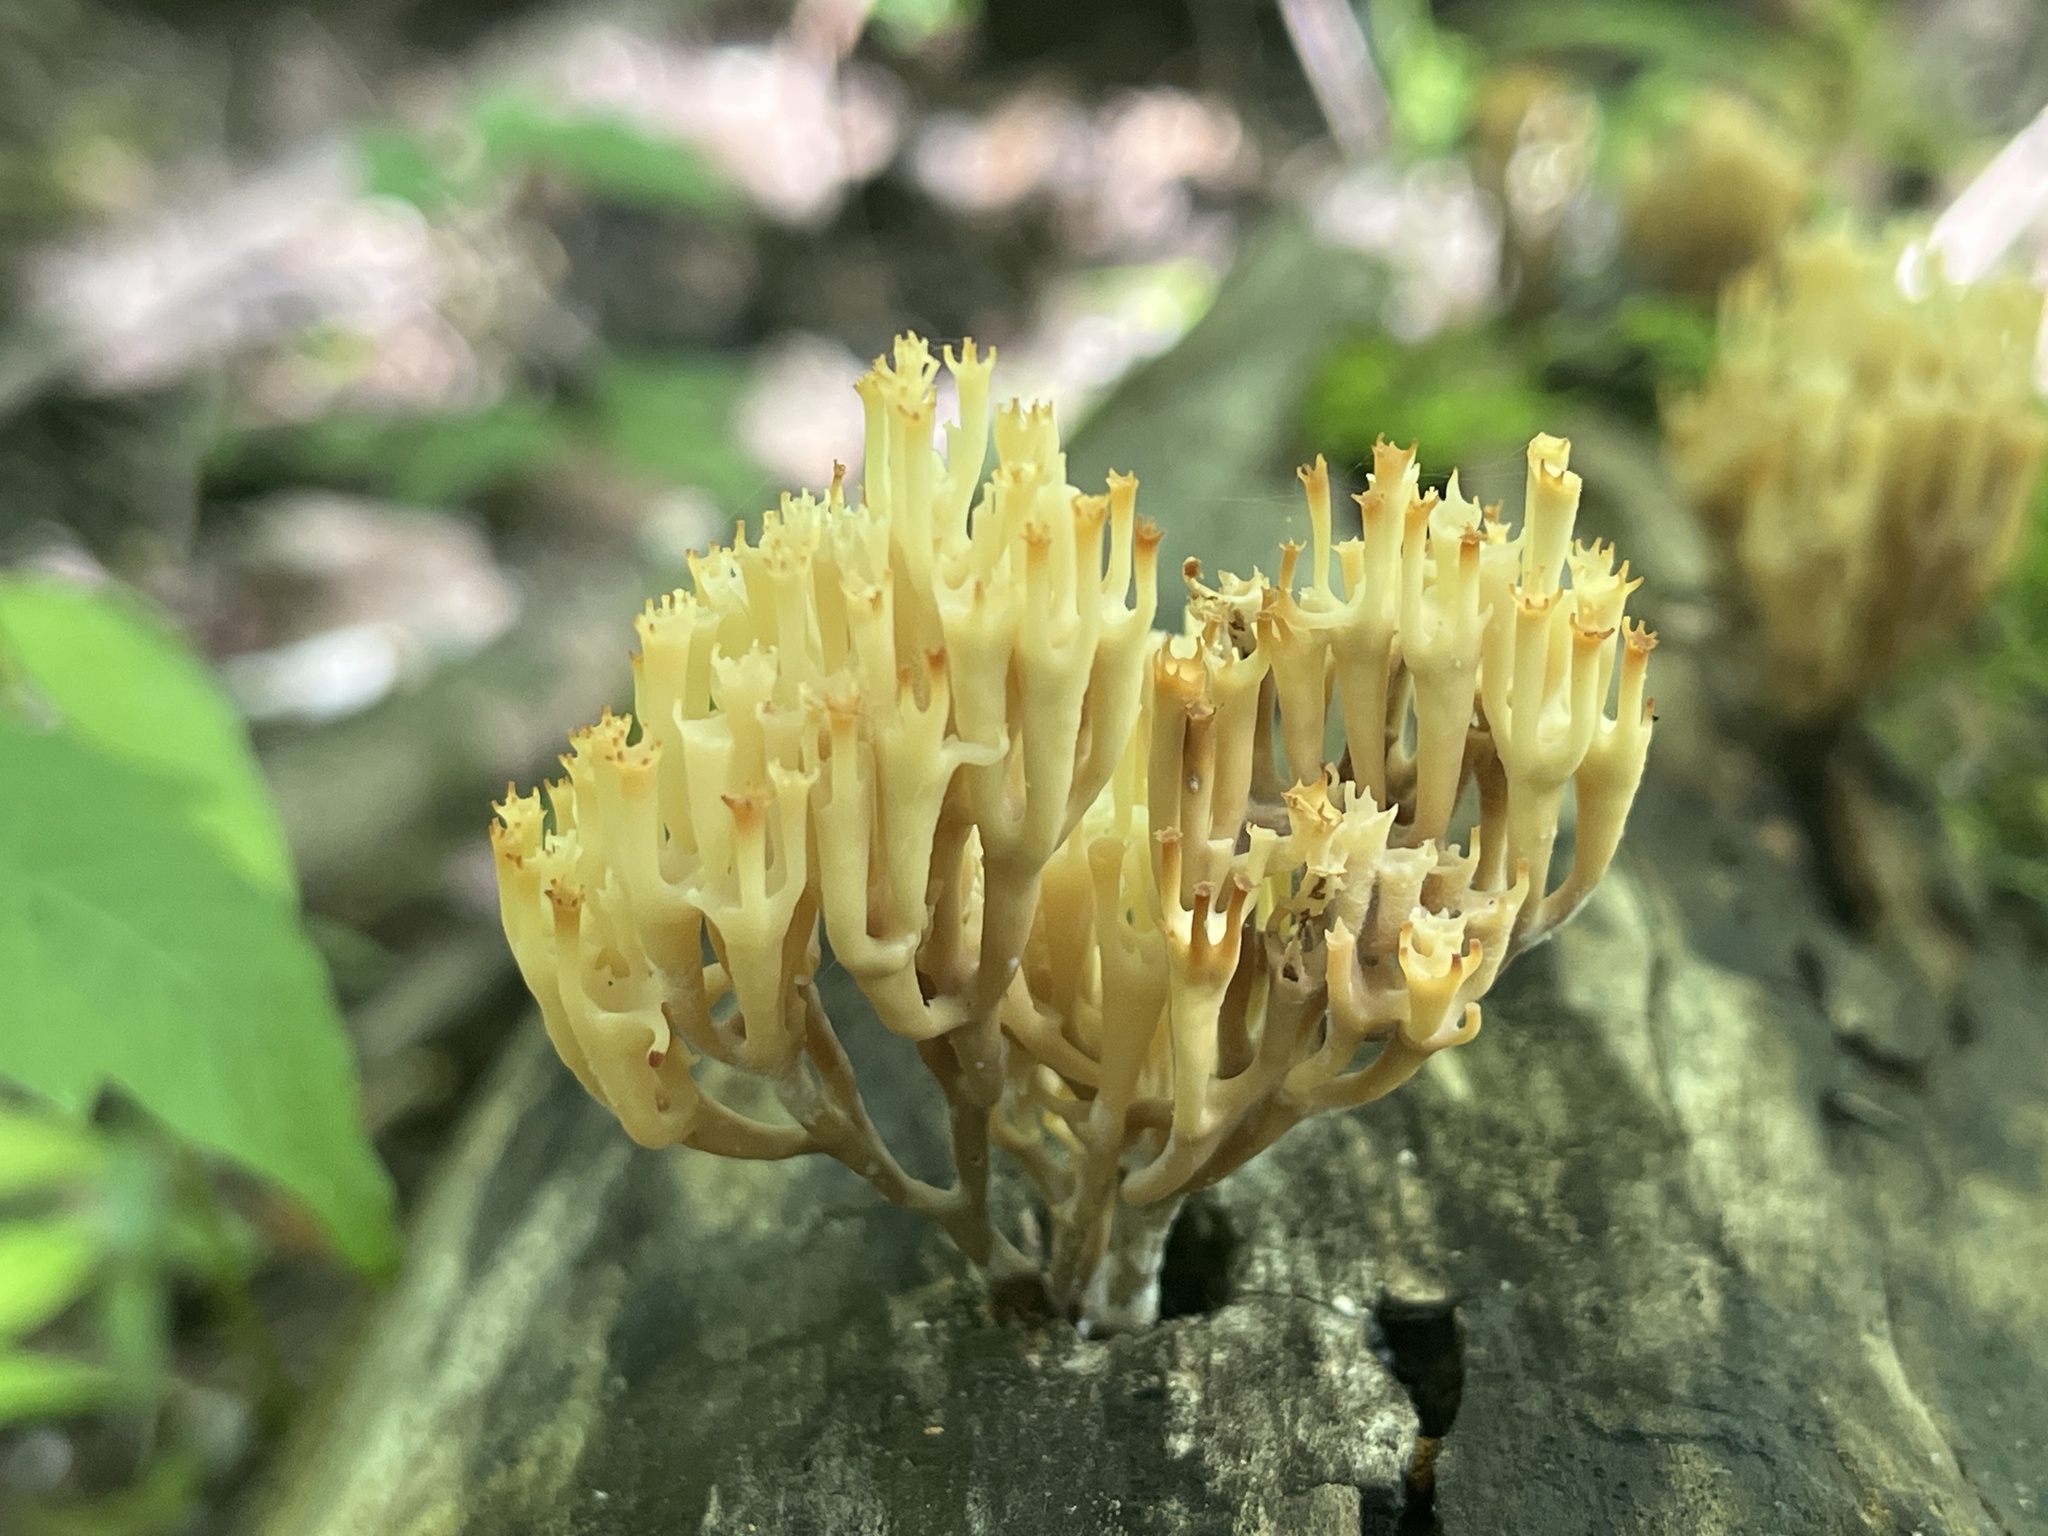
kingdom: Fungi
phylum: Basidiomycota
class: Agaricomycetes
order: Russulales
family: Auriscalpiaceae
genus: Artomyces
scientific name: Artomyces pyxidatus
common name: Crown-tipped coral fungus
